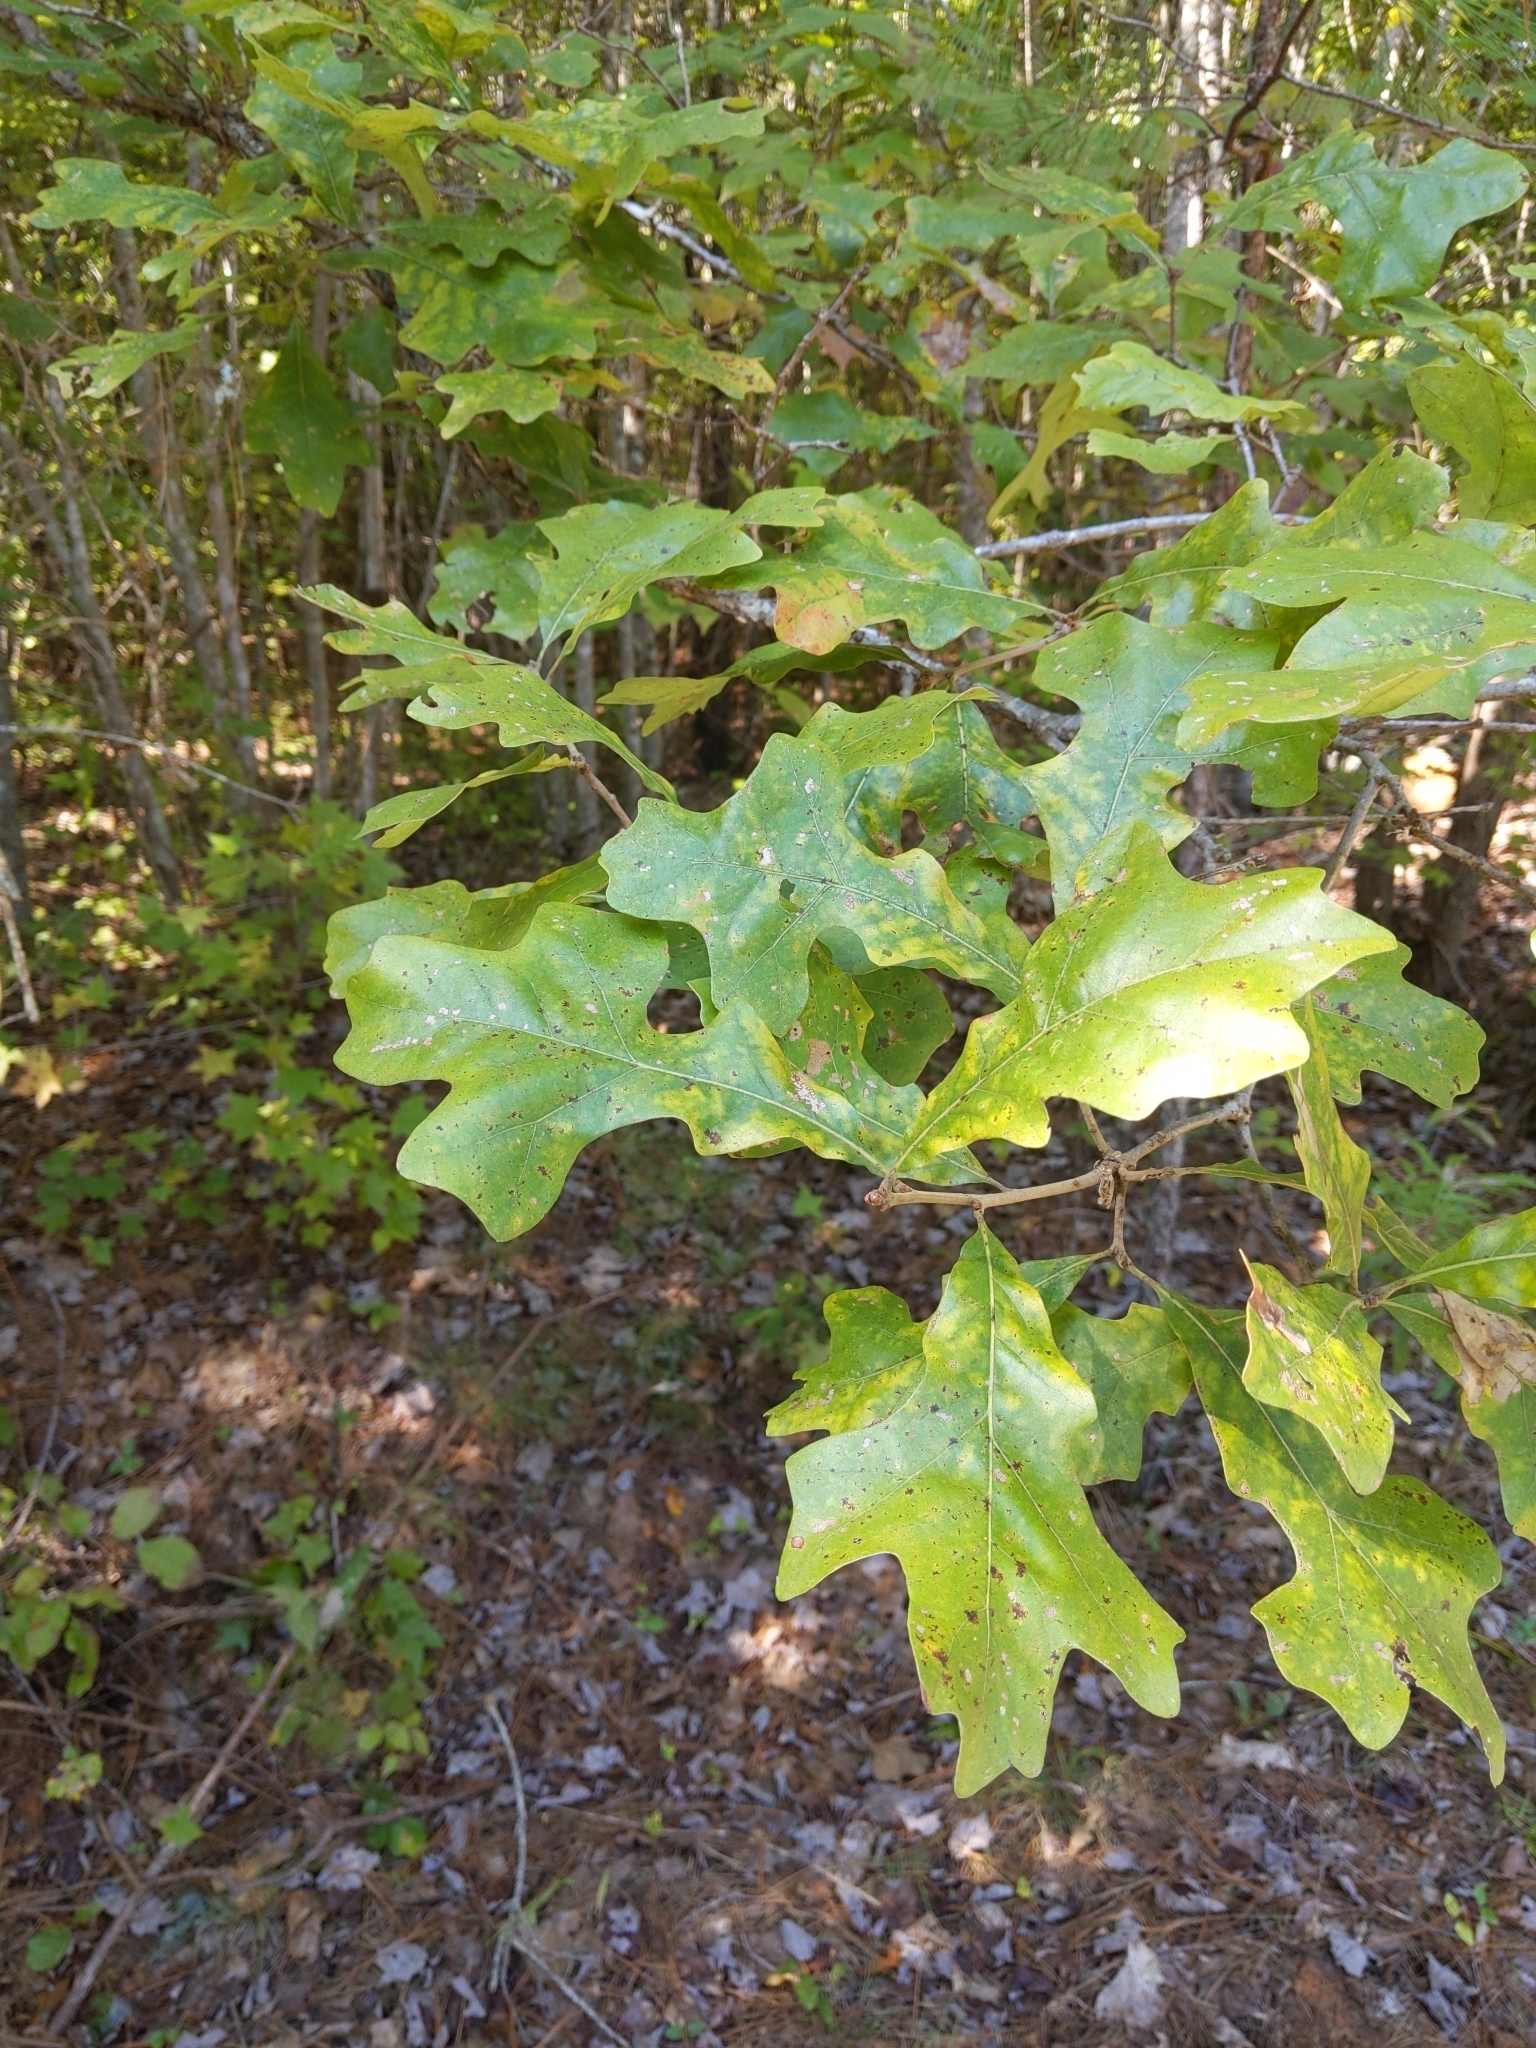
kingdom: Plantae
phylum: Tracheophyta
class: Magnoliopsida
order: Fagales
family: Fagaceae
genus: Quercus
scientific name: Quercus stellata
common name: Post oak
